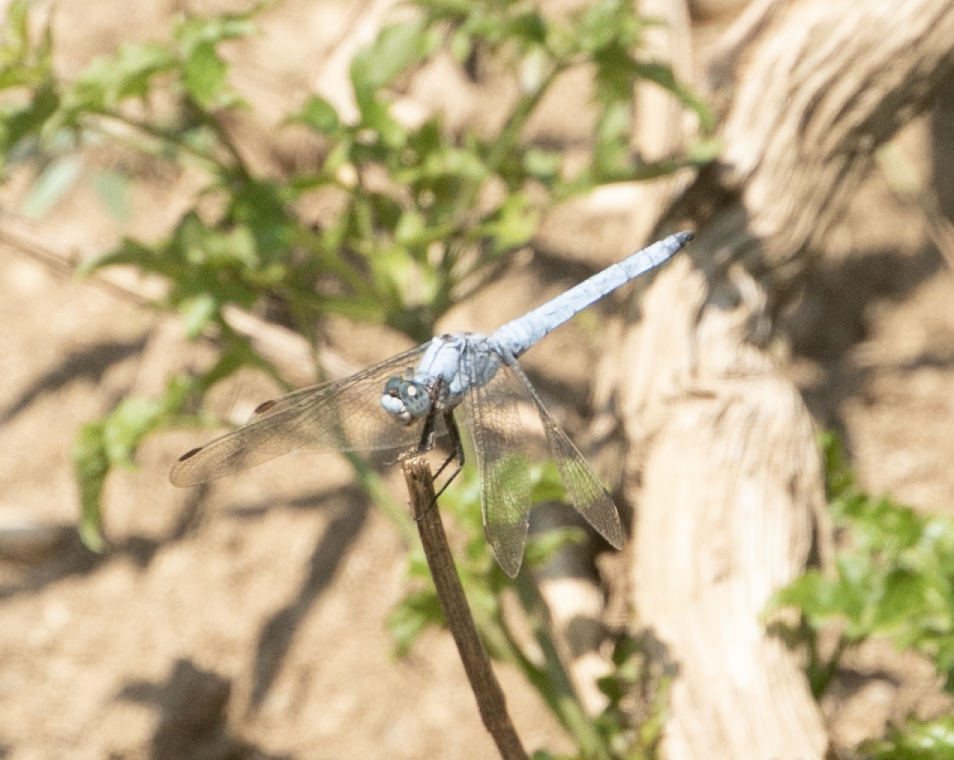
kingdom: Animalia
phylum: Arthropoda
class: Insecta
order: Odonata
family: Libellulidae
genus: Orthetrum
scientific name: Orthetrum brunneum
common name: Southern skimmer
